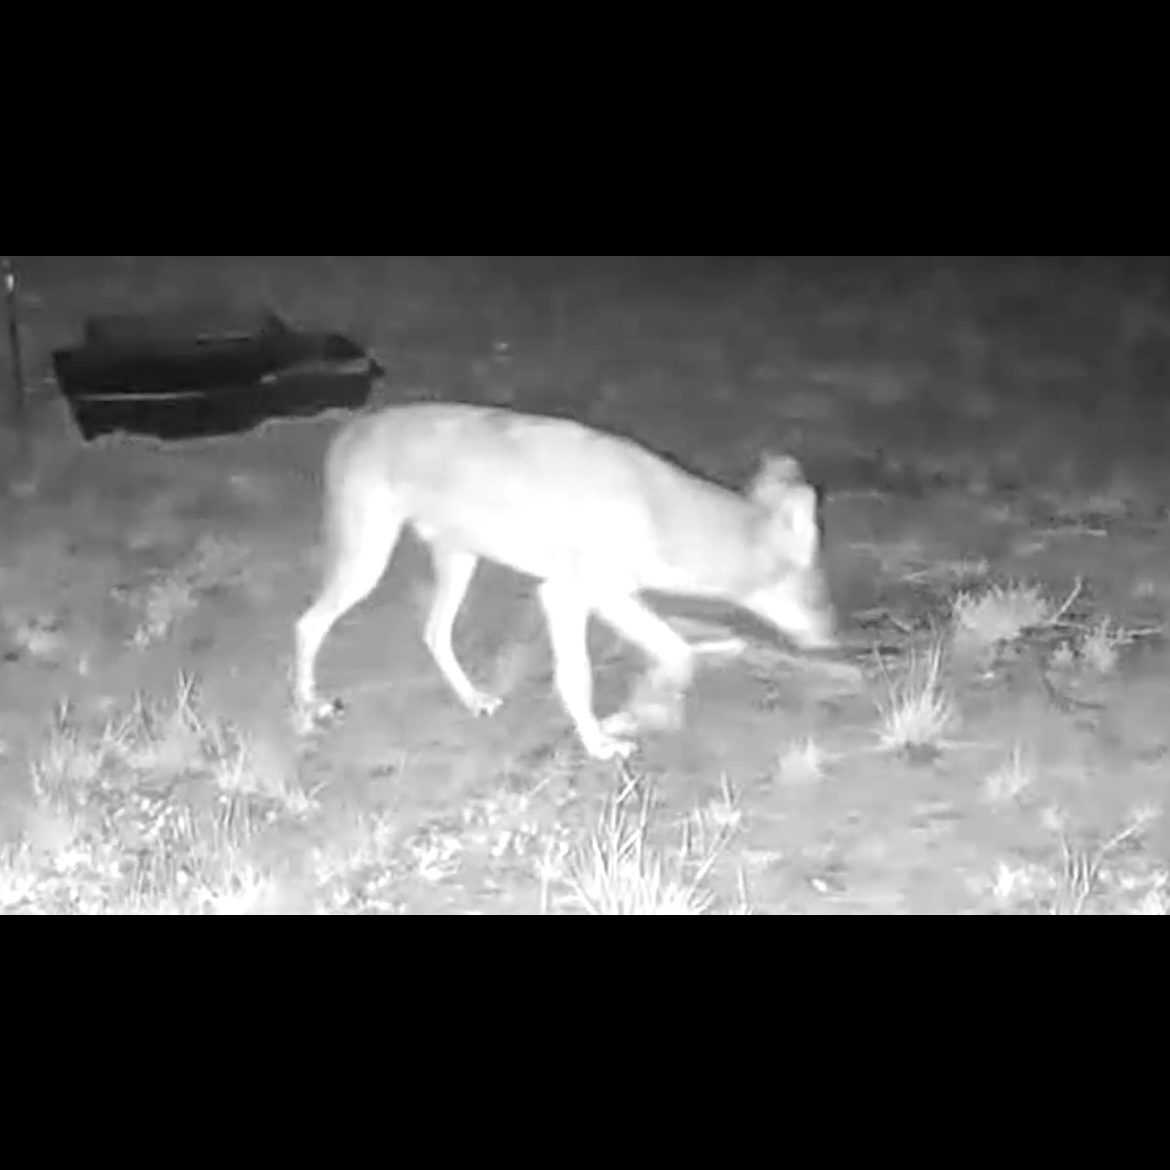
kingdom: Animalia
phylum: Chordata
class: Mammalia
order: Carnivora
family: Canidae
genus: Canis
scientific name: Canis latrans
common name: Coyote
